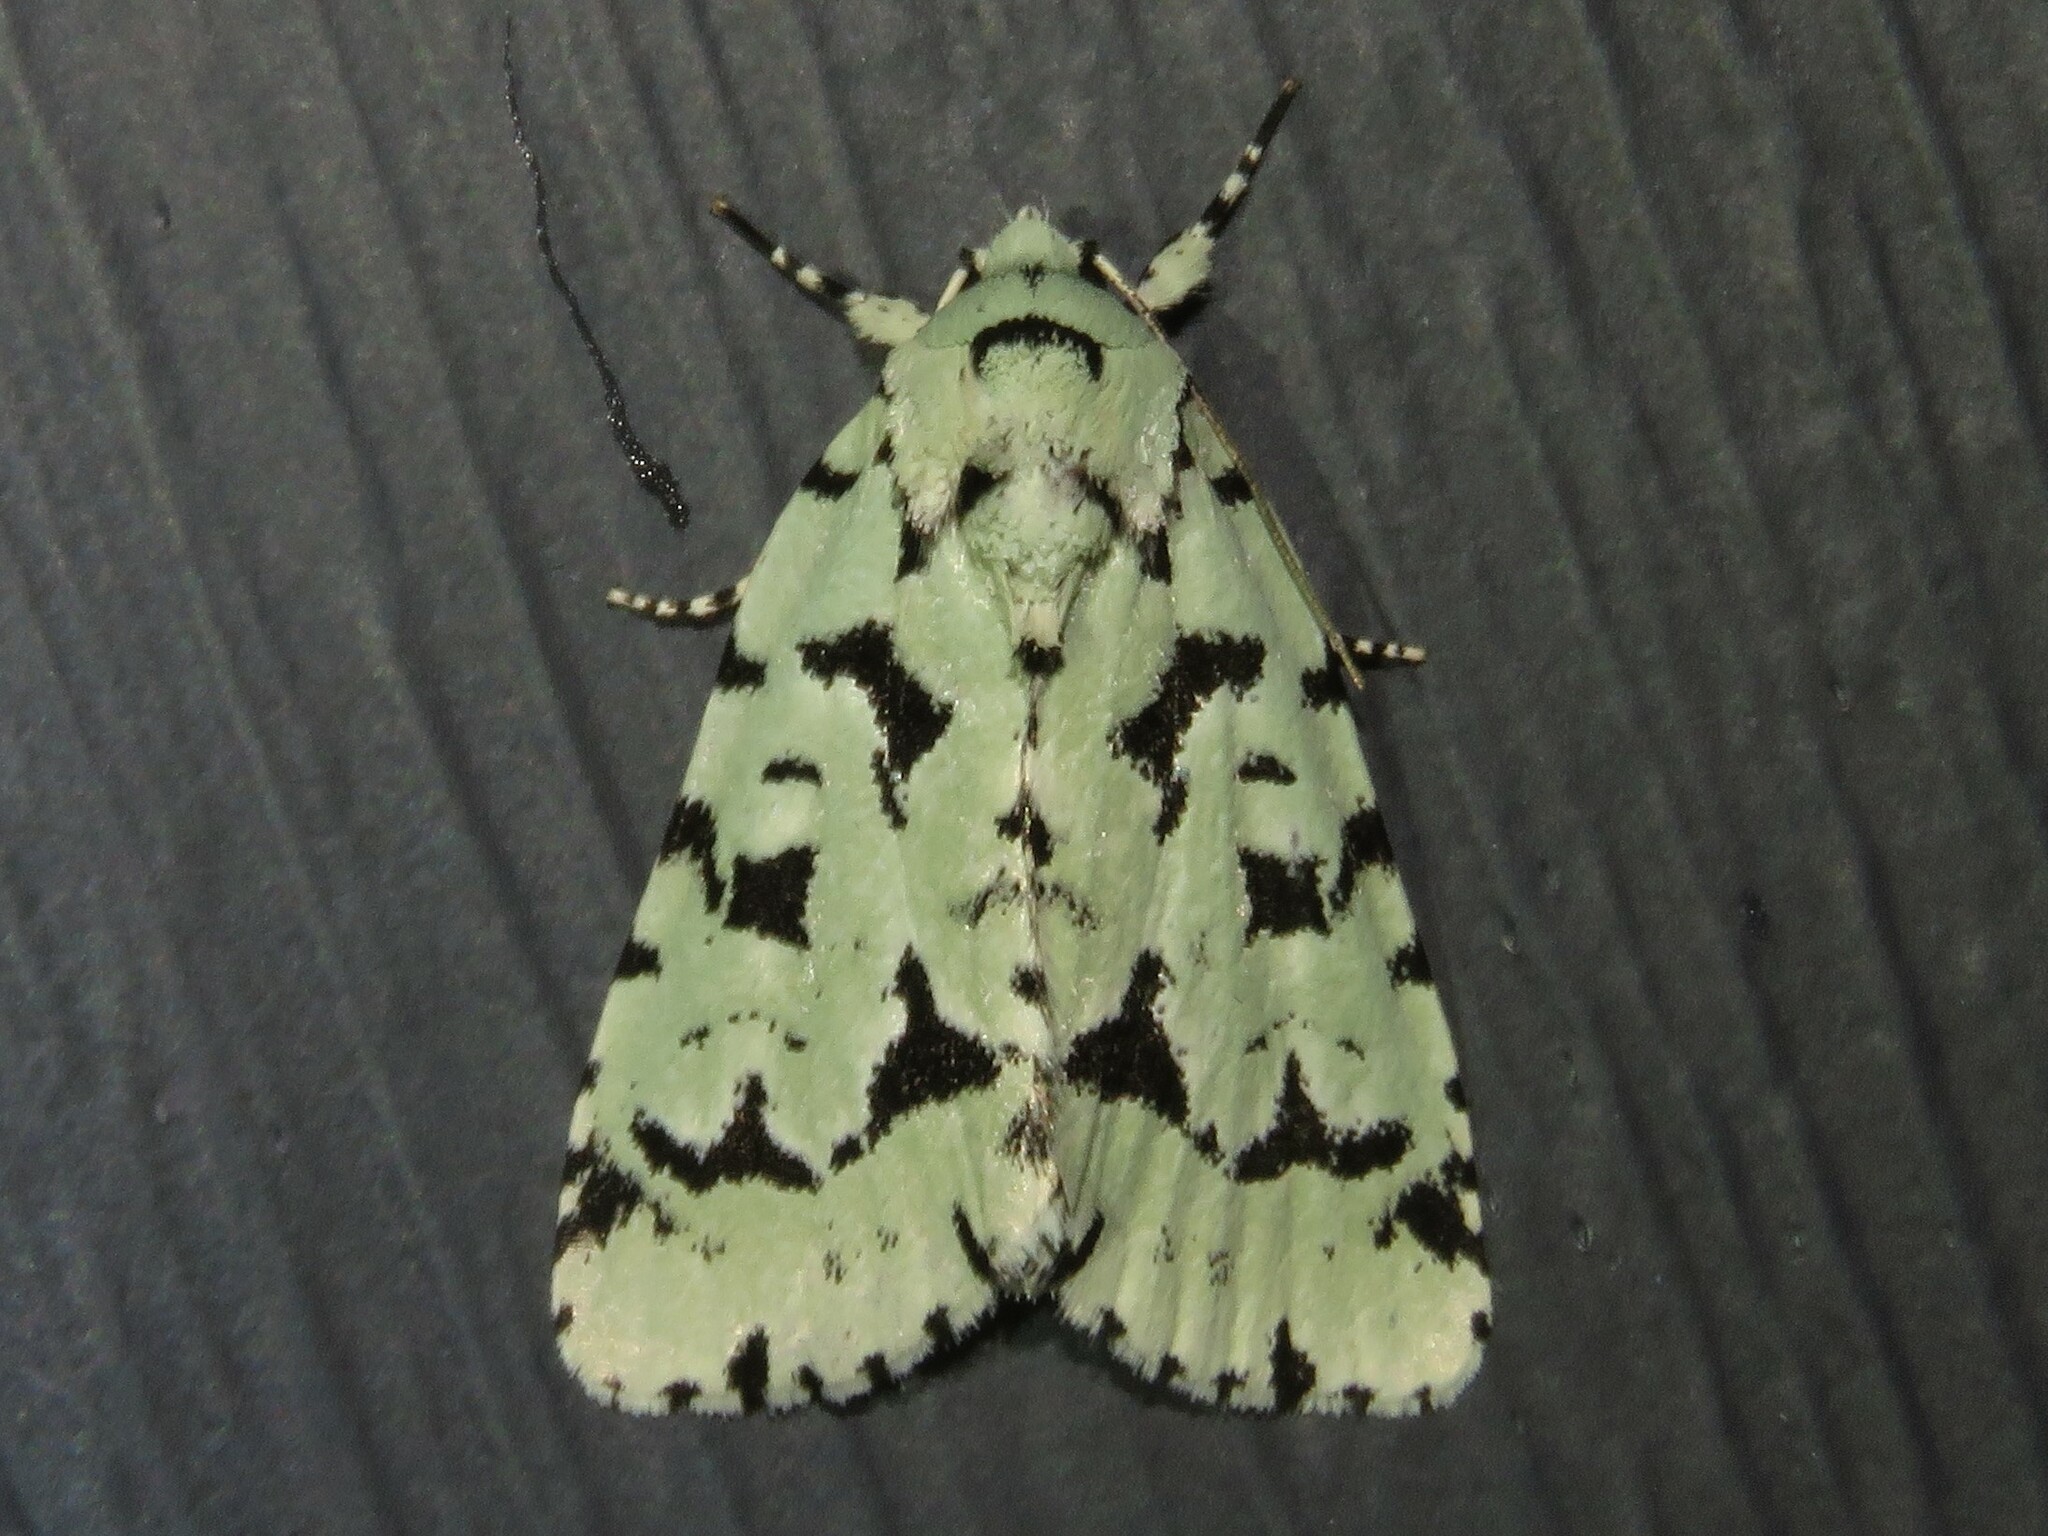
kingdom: Animalia
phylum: Arthropoda
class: Insecta
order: Lepidoptera
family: Noctuidae
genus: Acronicta
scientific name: Acronicta fallax
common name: Green marvel
